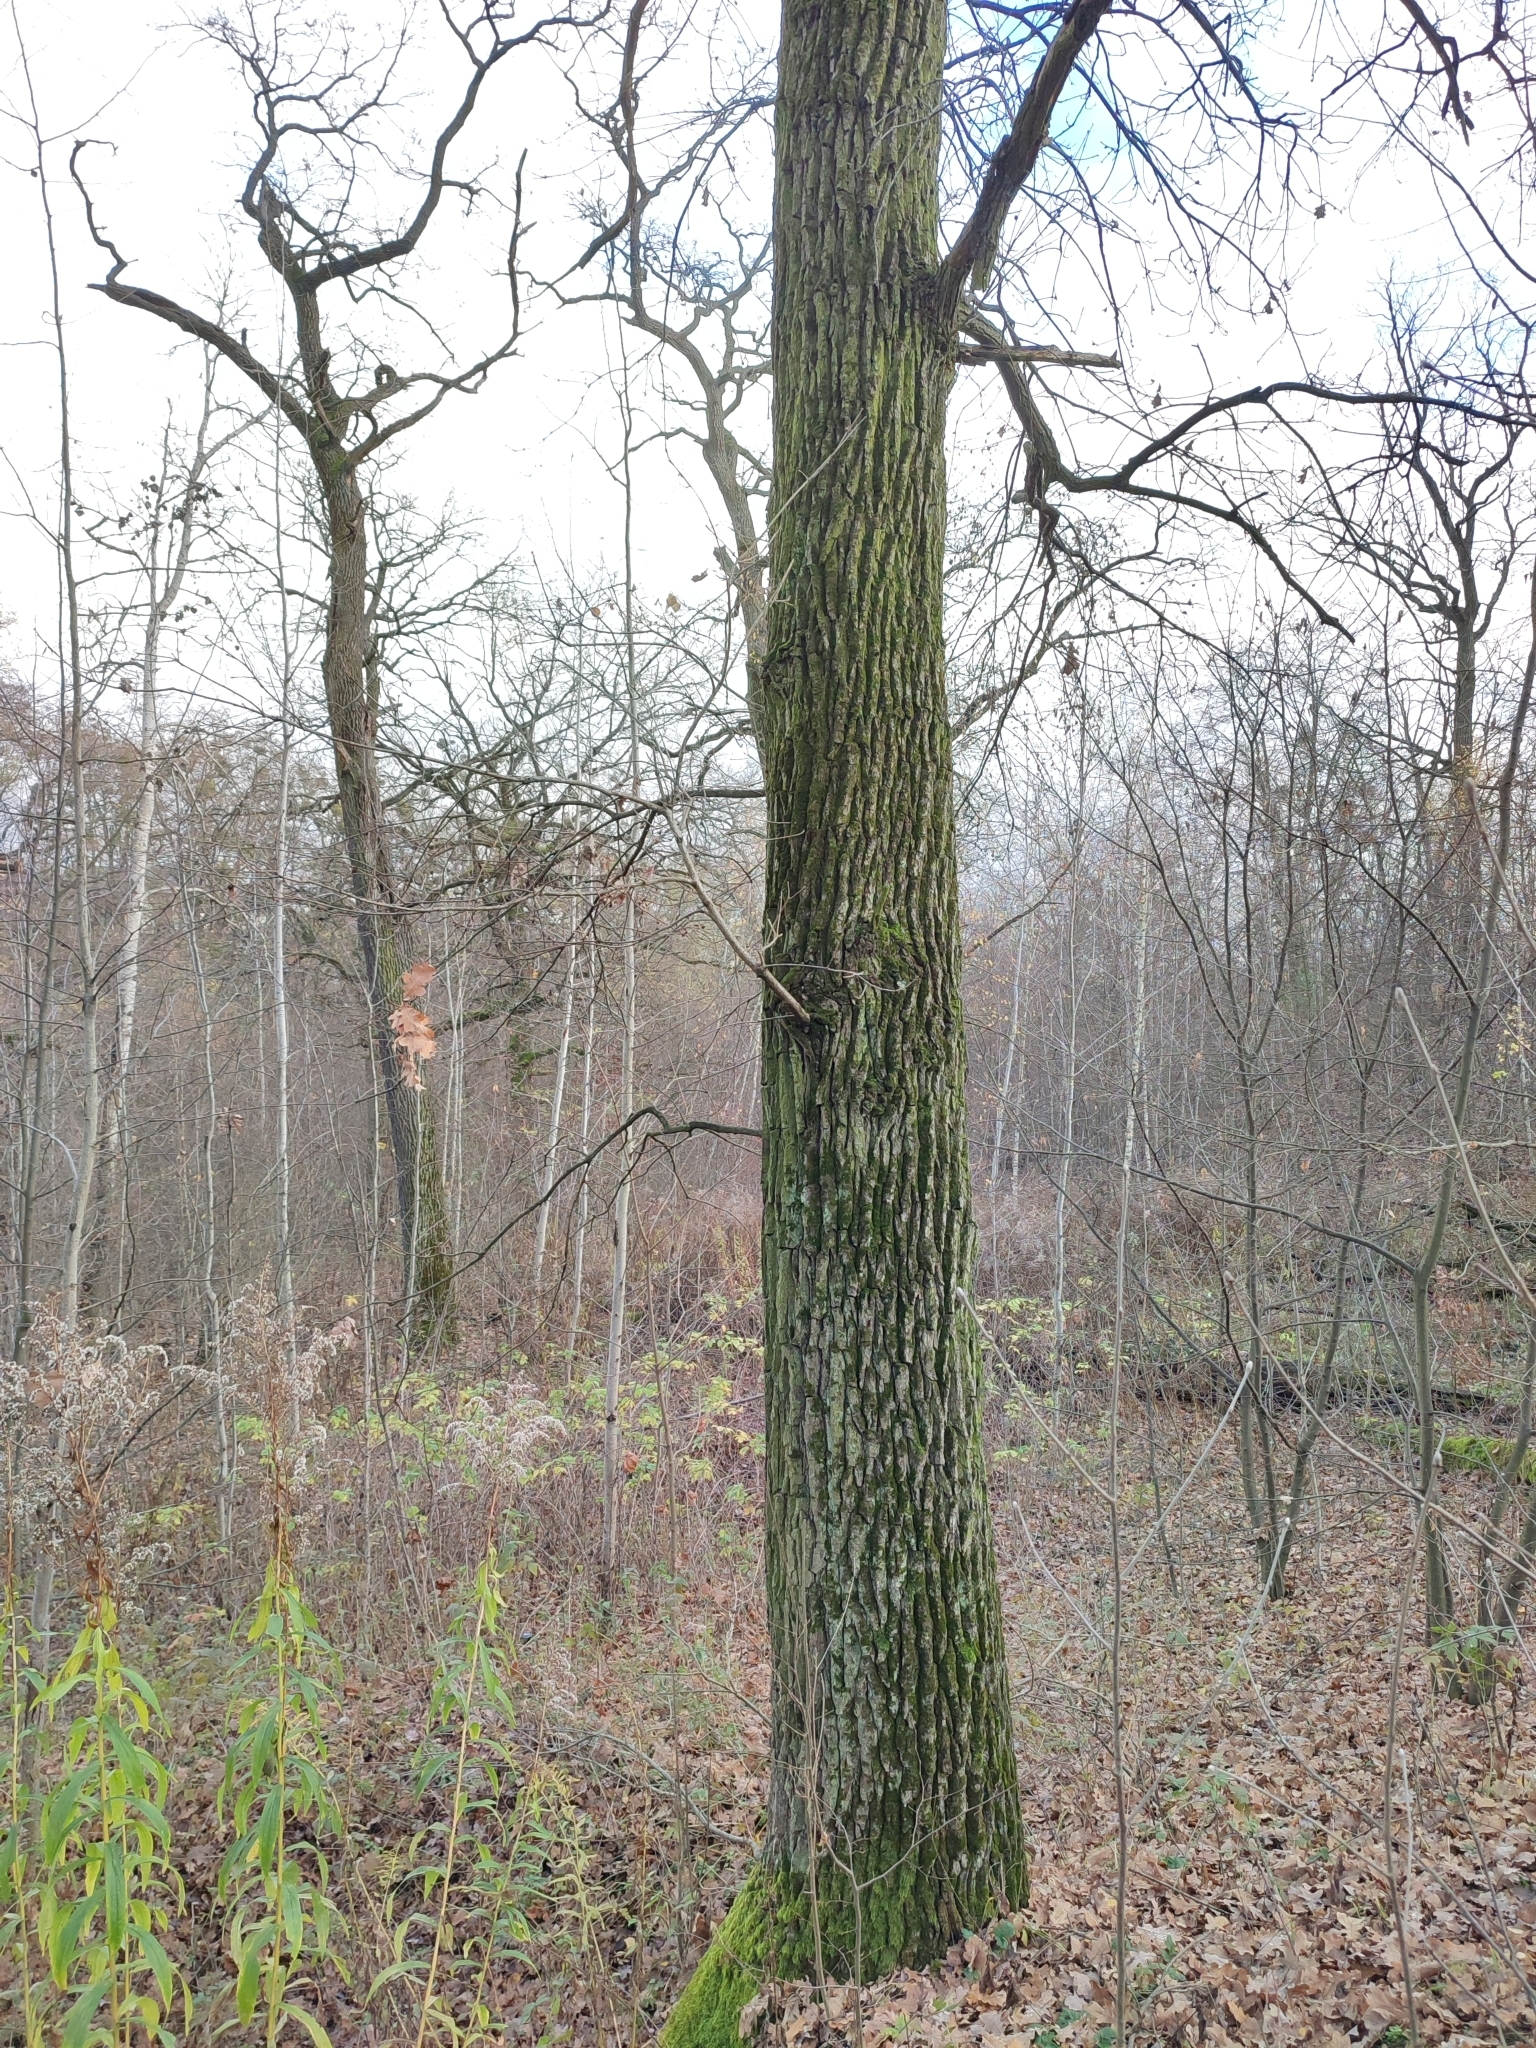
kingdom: Plantae
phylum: Tracheophyta
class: Magnoliopsida
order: Fagales
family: Fagaceae
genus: Quercus
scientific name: Quercus robur
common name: Pedunculate oak
